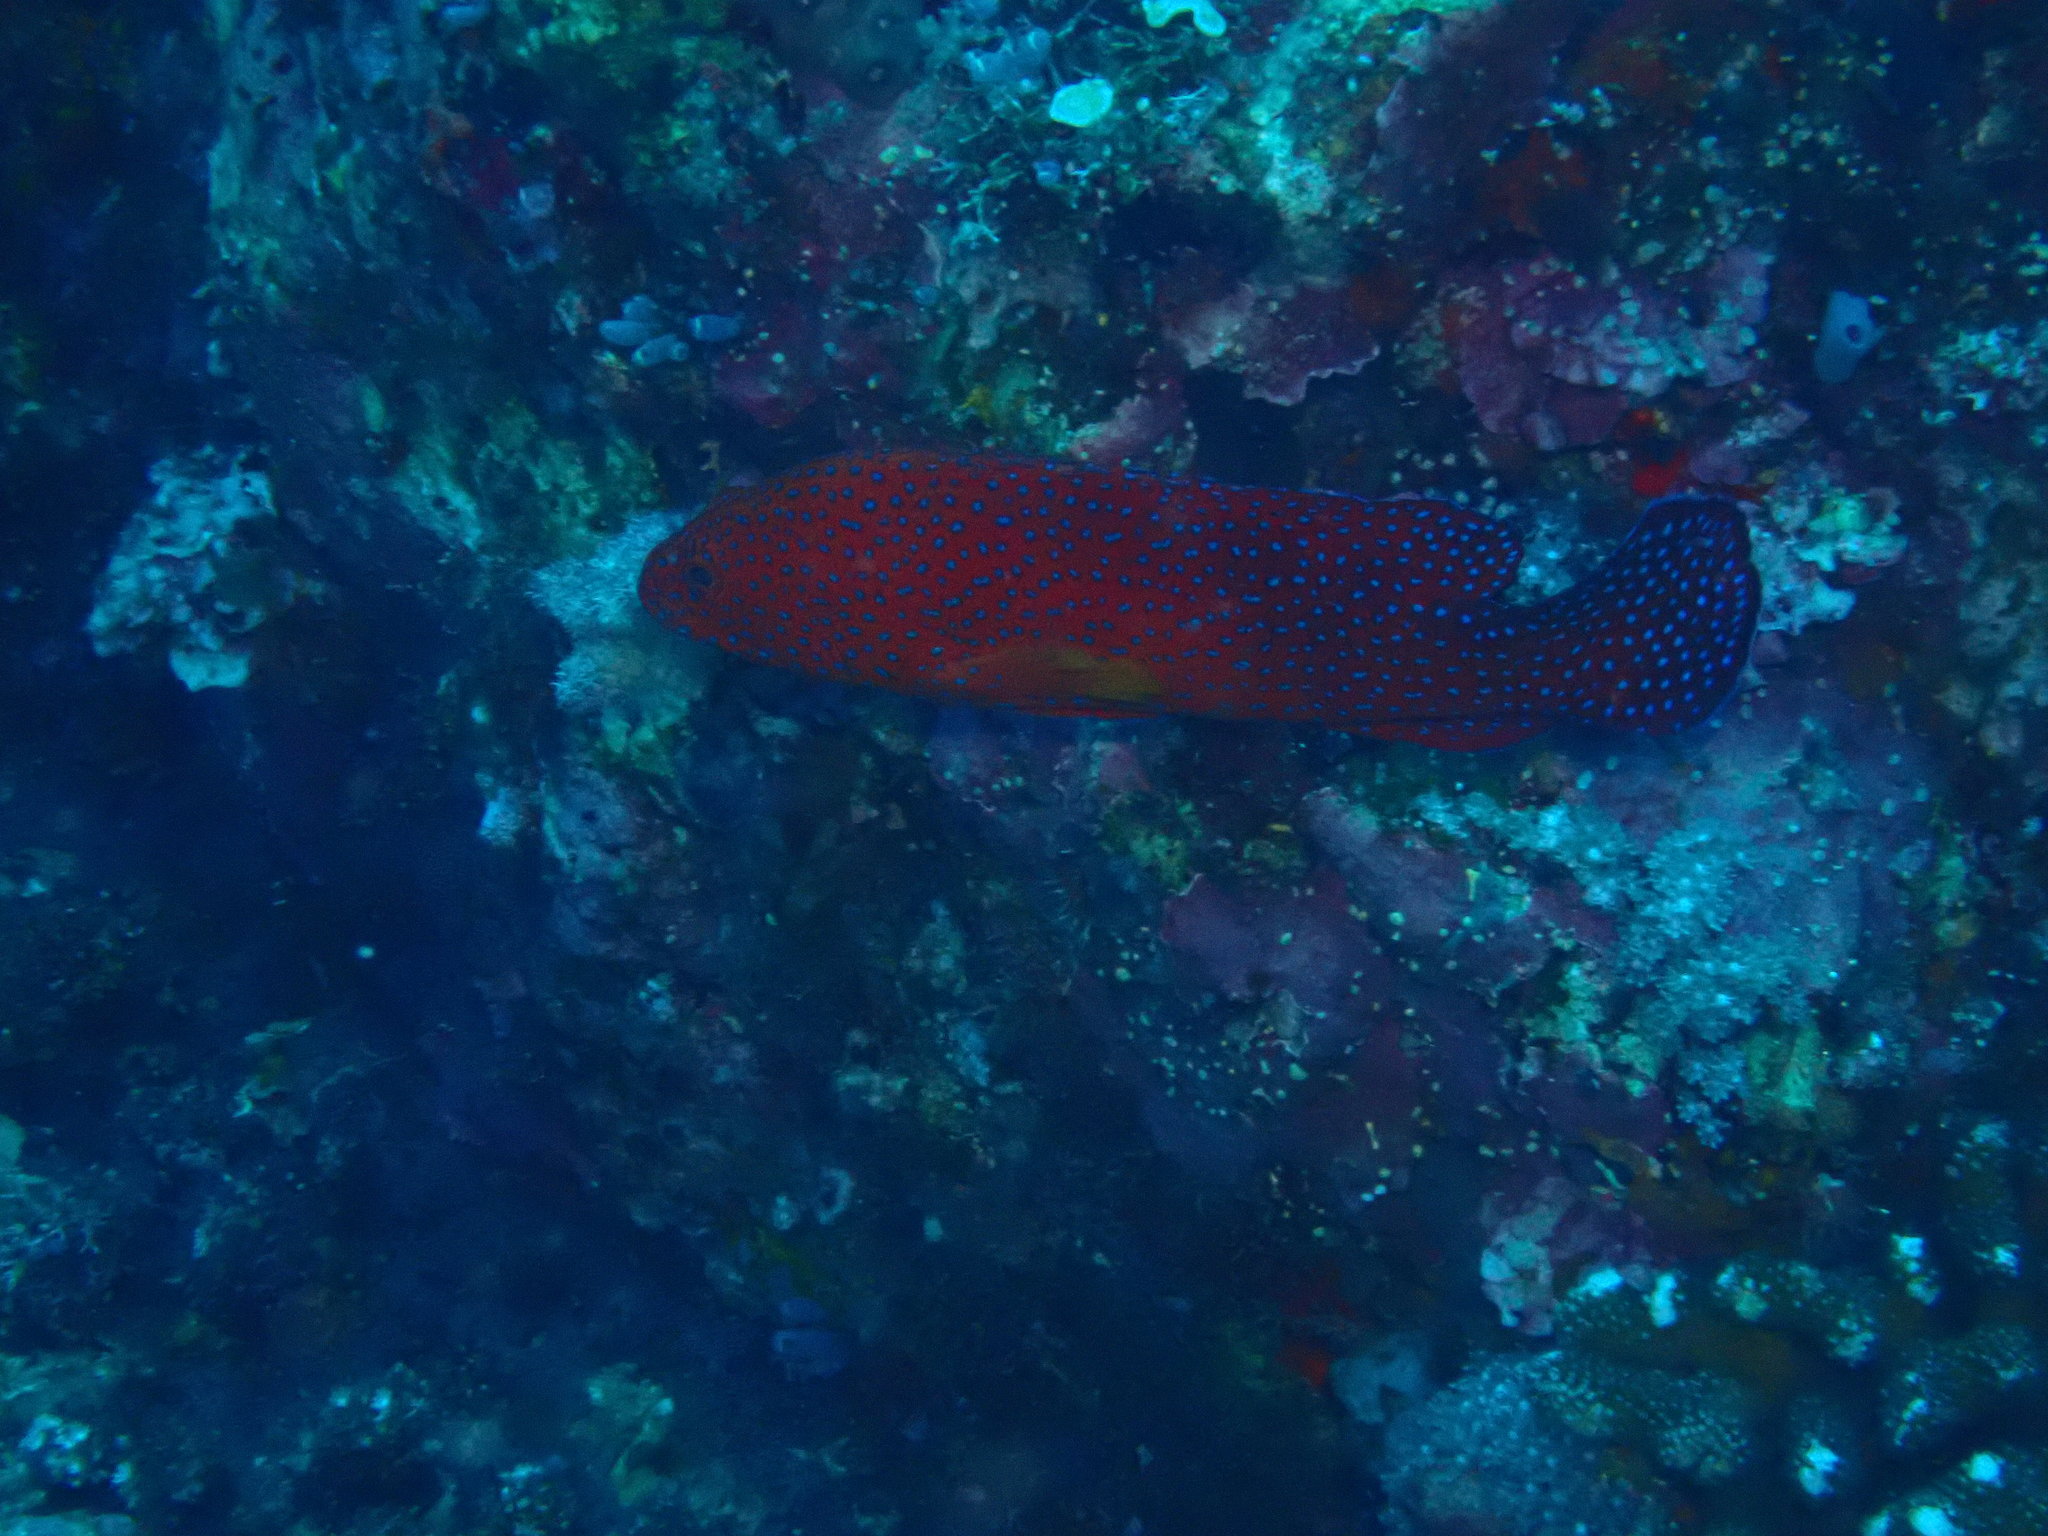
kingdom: Animalia
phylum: Chordata
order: Perciformes
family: Serranidae
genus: Cephalopholis
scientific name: Cephalopholis miniata
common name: Coral hind
